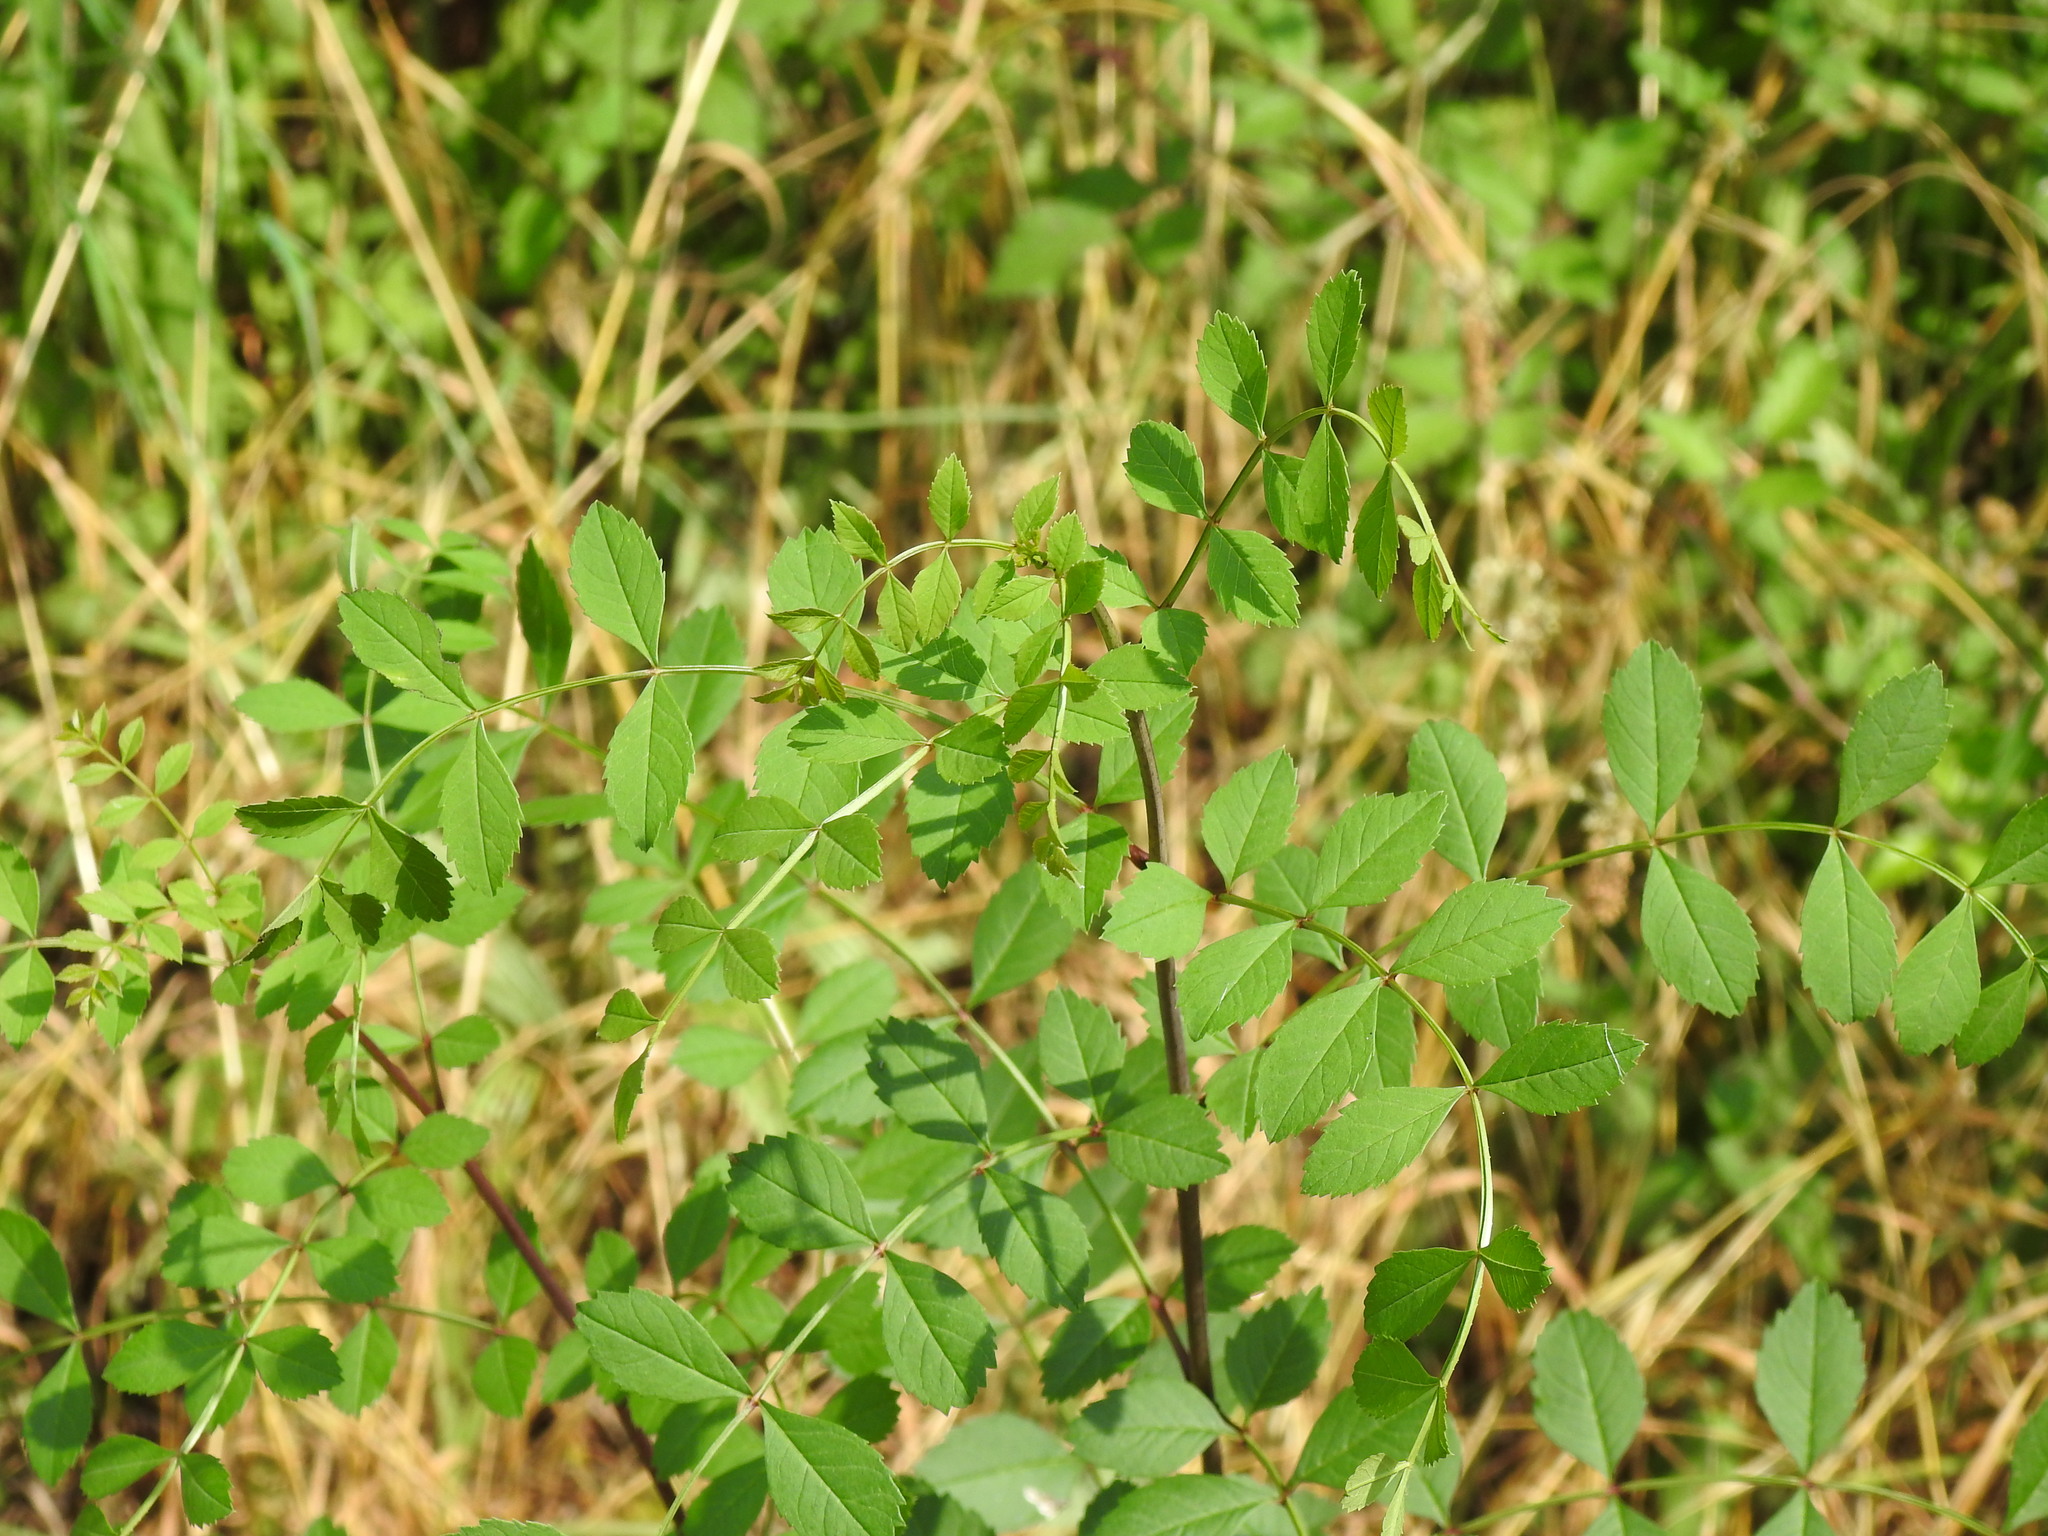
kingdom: Plantae
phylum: Tracheophyta
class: Magnoliopsida
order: Lamiales
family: Oleaceae
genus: Fraxinus
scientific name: Fraxinus angustifolia
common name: Narrow-leafed ash
